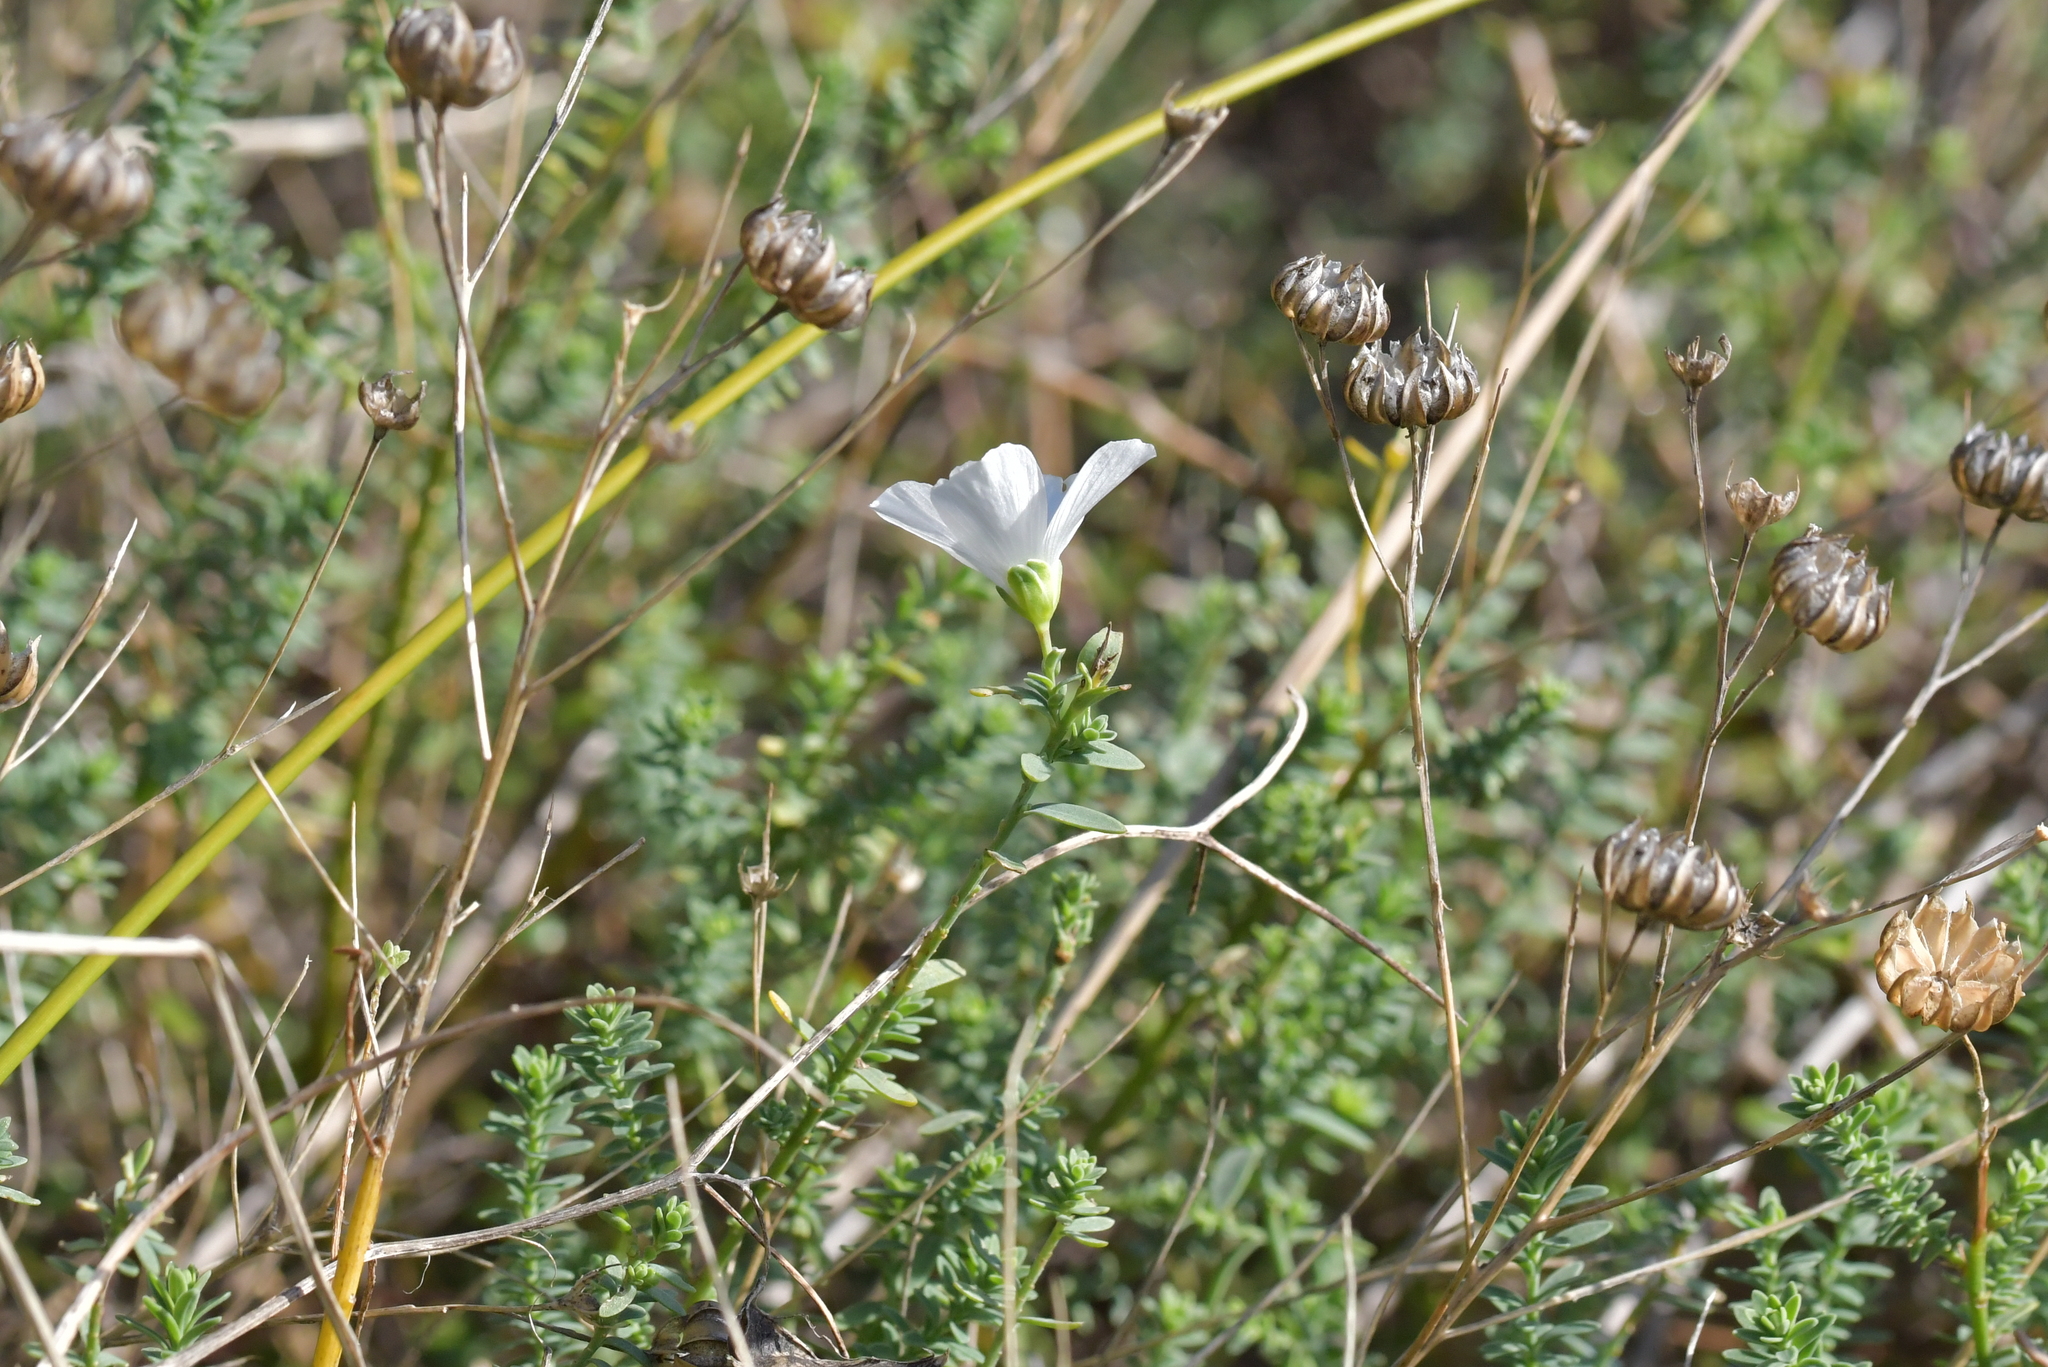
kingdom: Plantae
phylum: Tracheophyta
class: Magnoliopsida
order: Malpighiales
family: Linaceae
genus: Linum
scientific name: Linum monogynum
